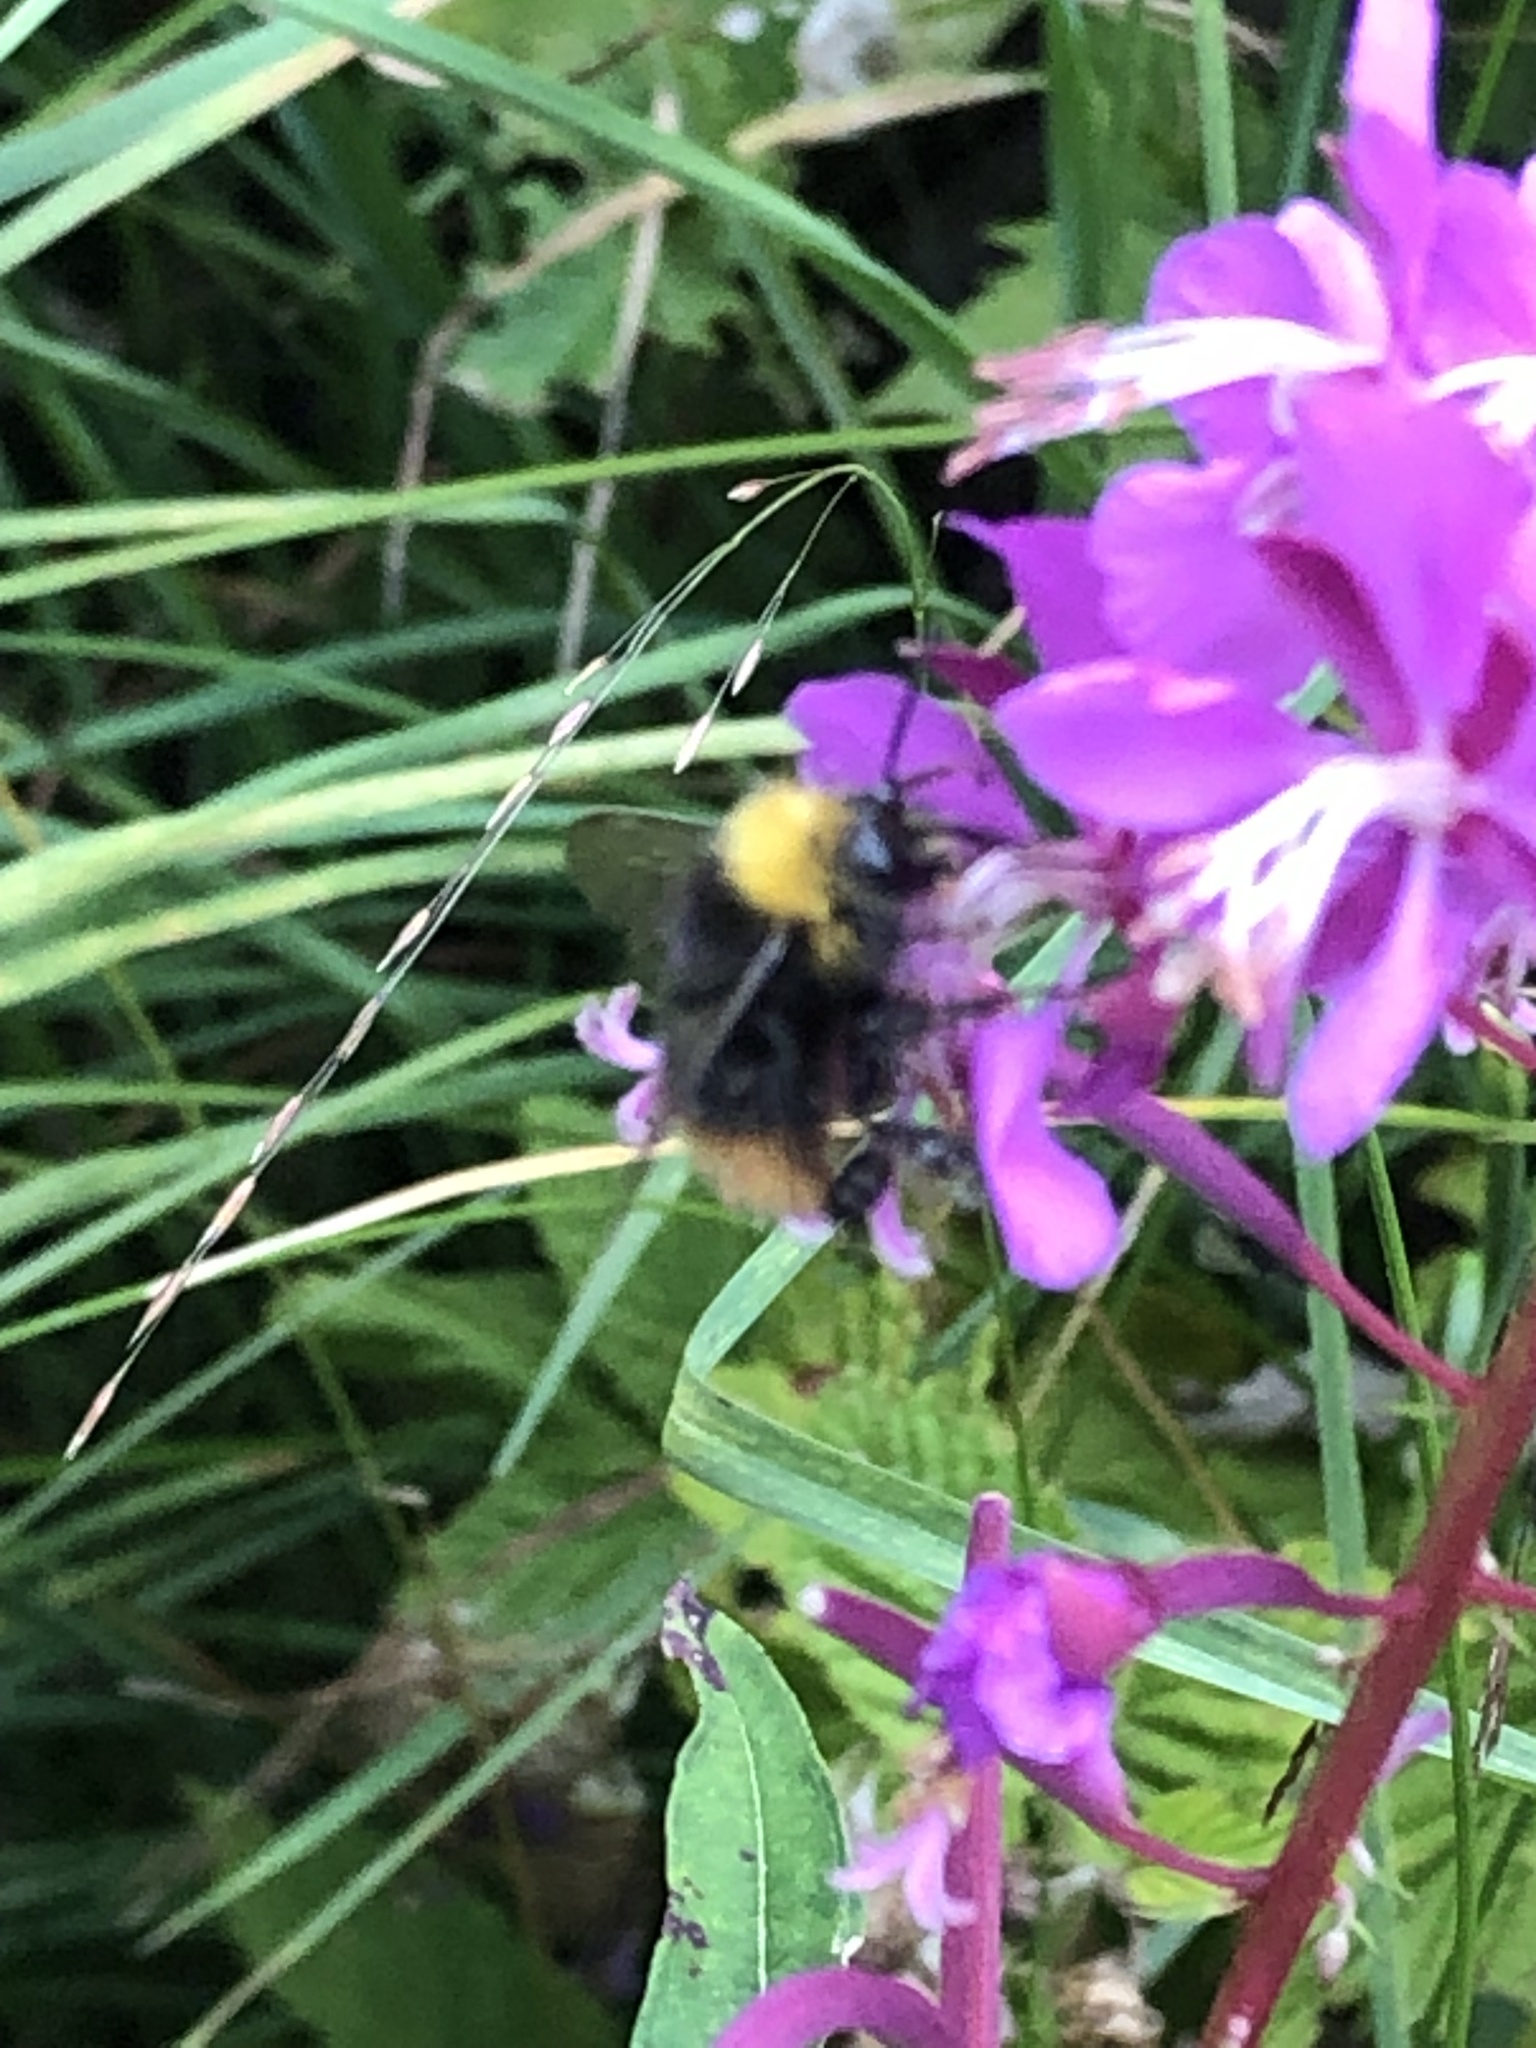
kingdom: Animalia
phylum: Arthropoda
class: Insecta
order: Hymenoptera
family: Apidae
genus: Bombus
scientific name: Bombus pratorum
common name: Early humble-bee
